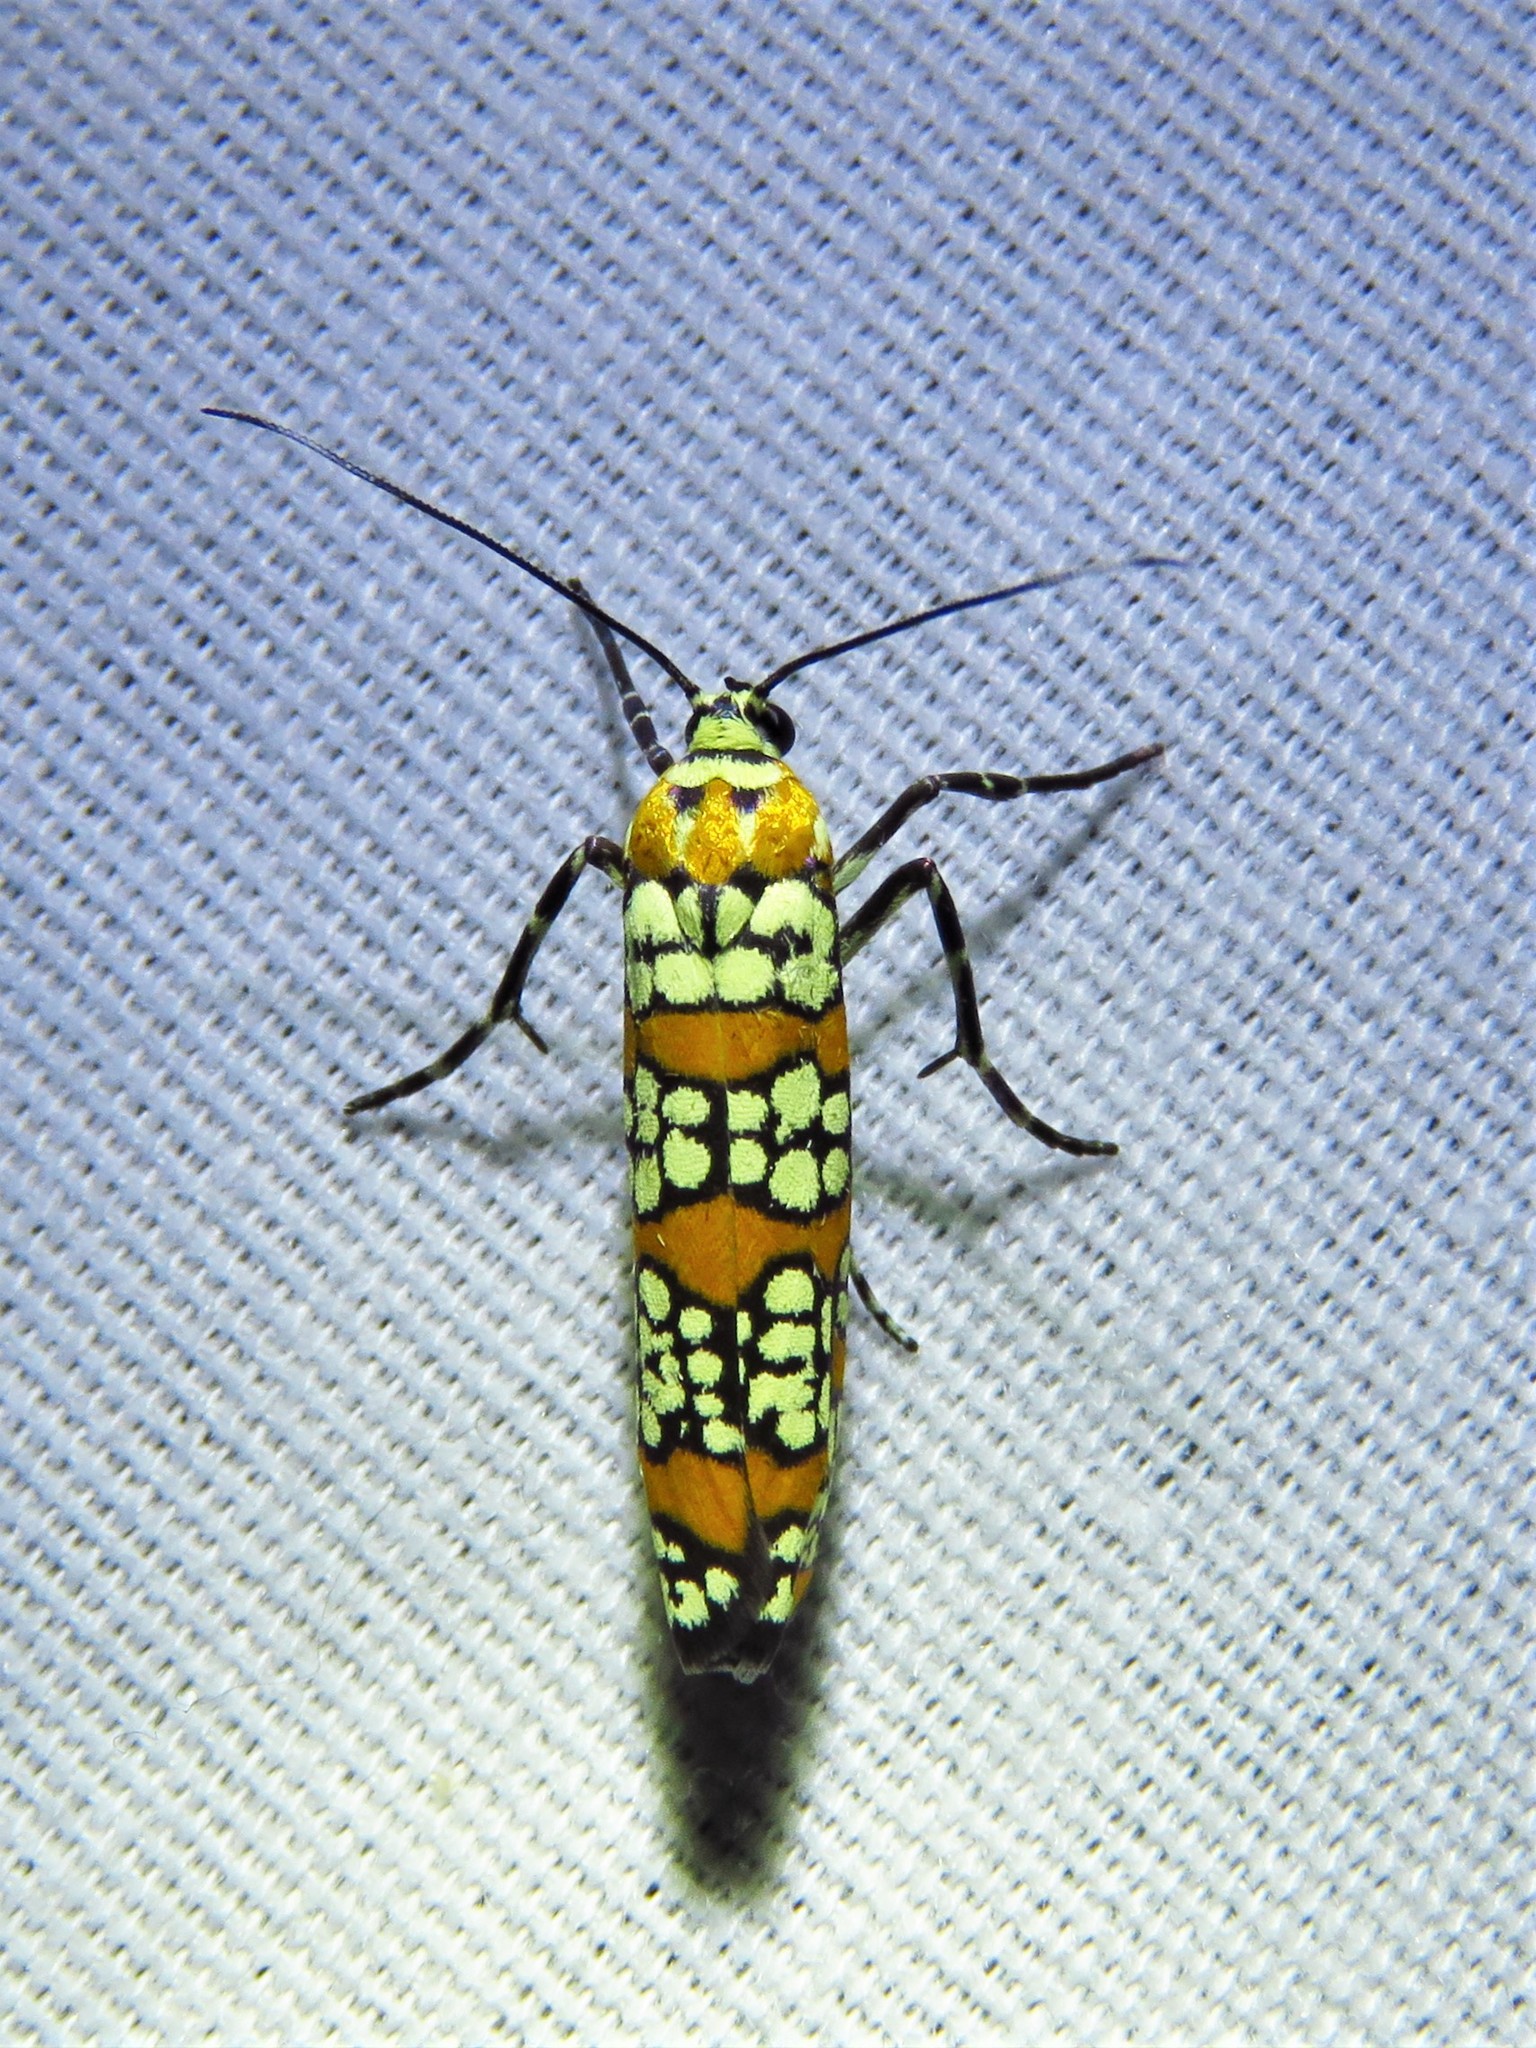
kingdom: Animalia
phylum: Arthropoda
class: Insecta
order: Lepidoptera
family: Attevidae
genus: Atteva
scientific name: Atteva punctella
